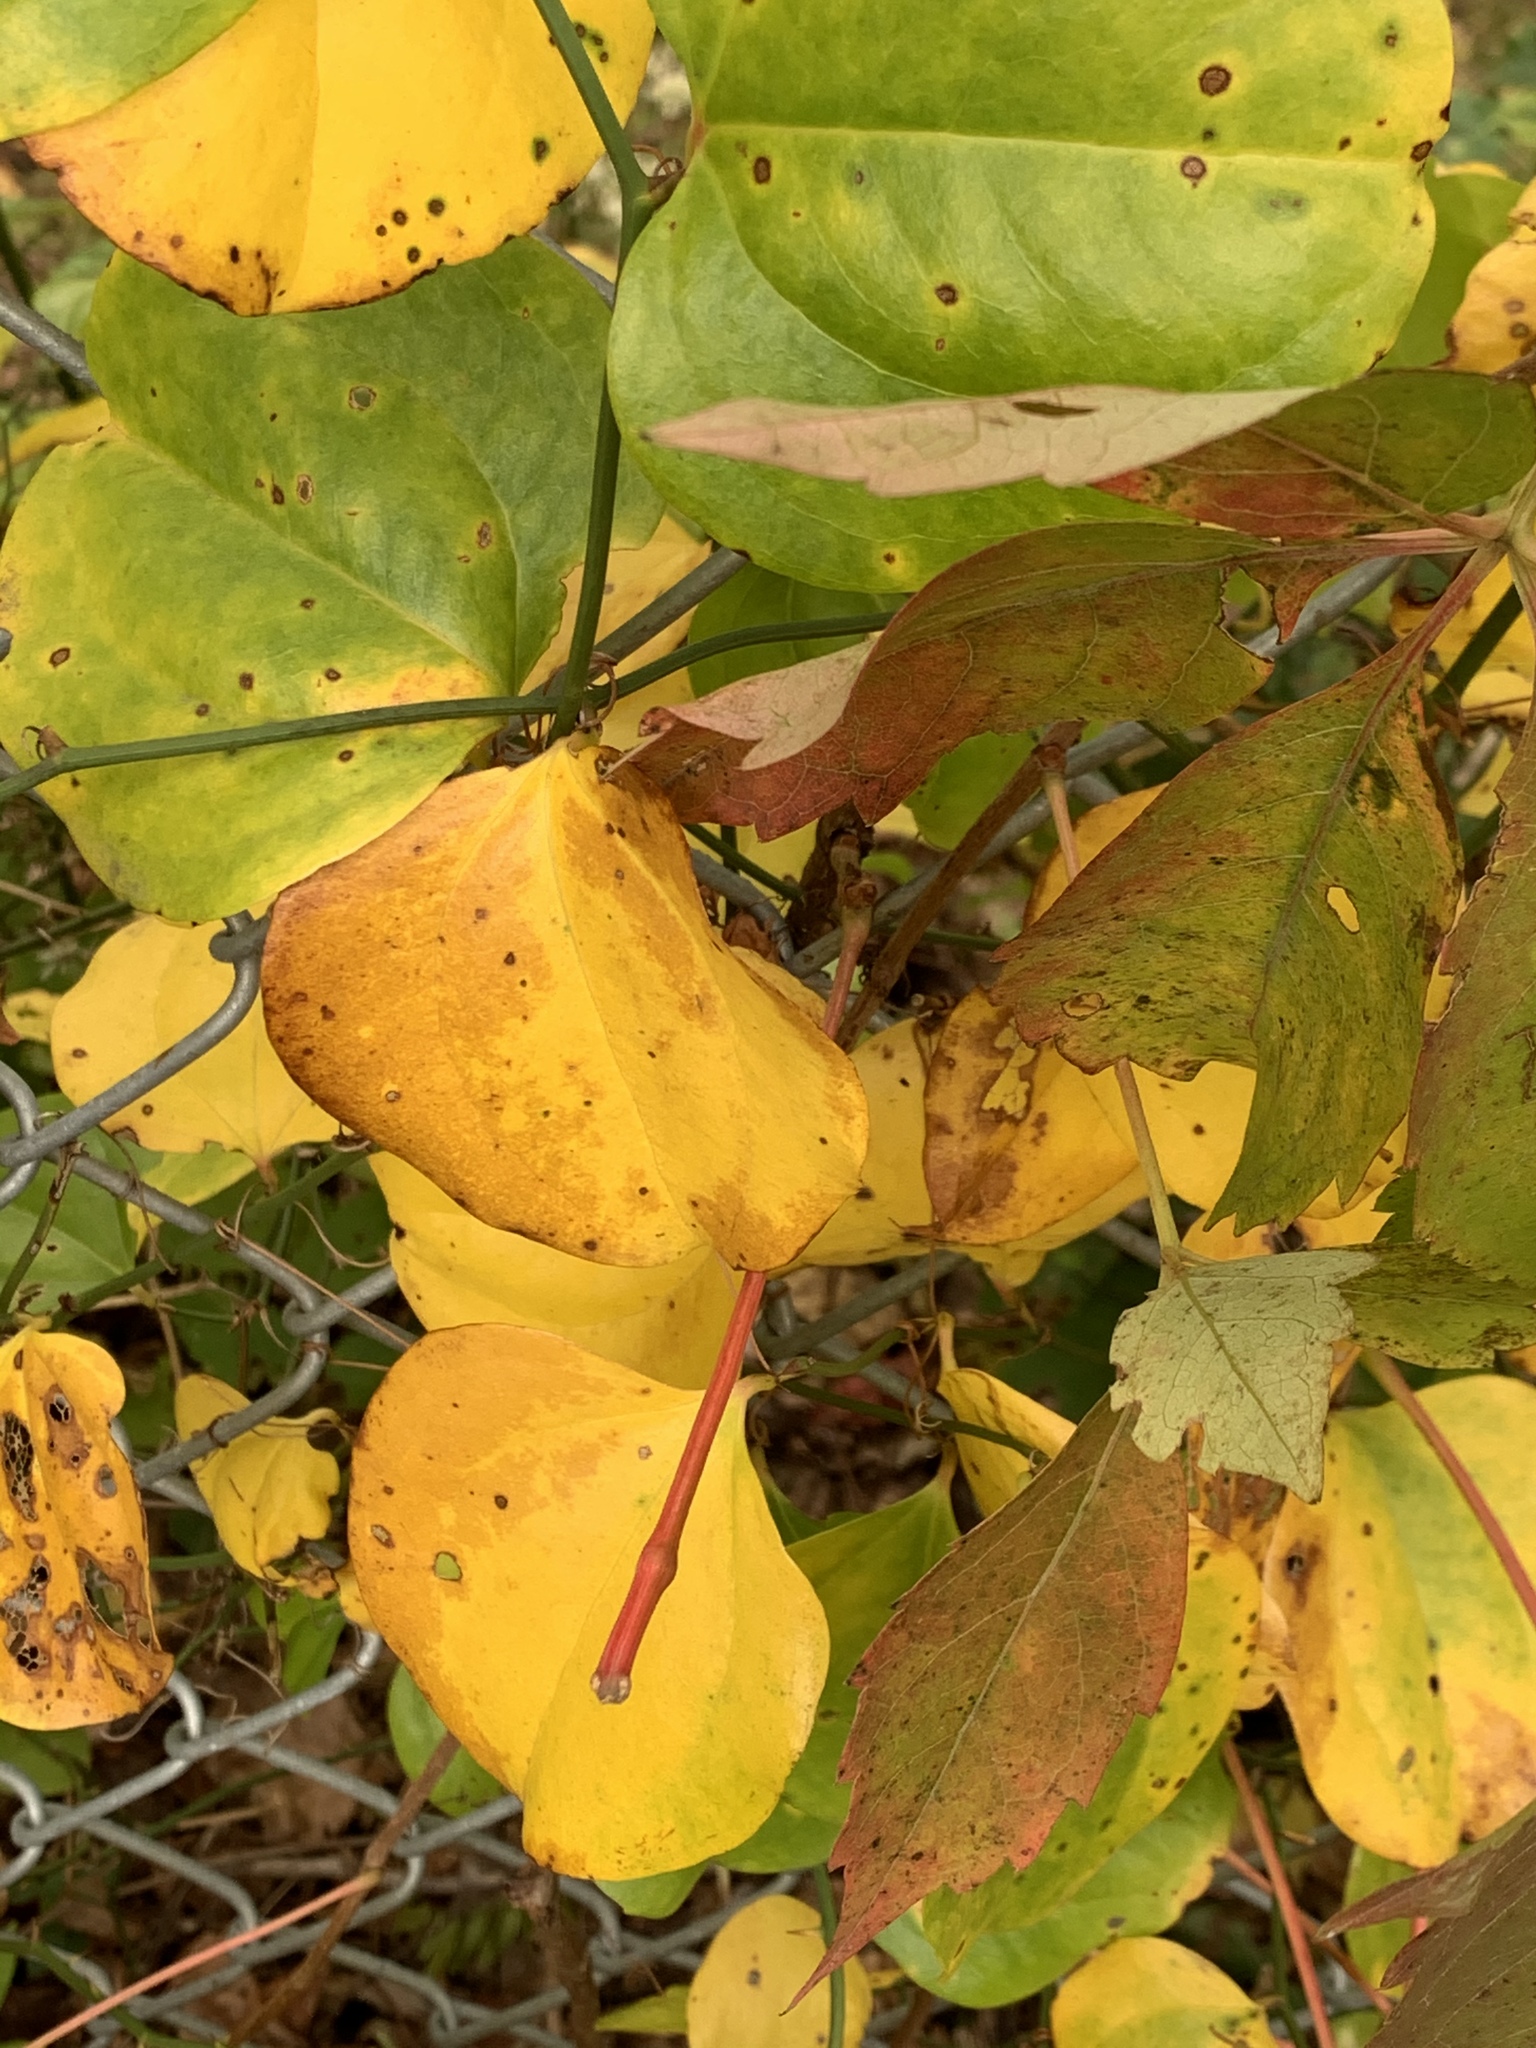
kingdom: Plantae
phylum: Tracheophyta
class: Liliopsida
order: Liliales
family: Smilacaceae
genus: Smilax
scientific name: Smilax rotundifolia
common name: Bullbriar
